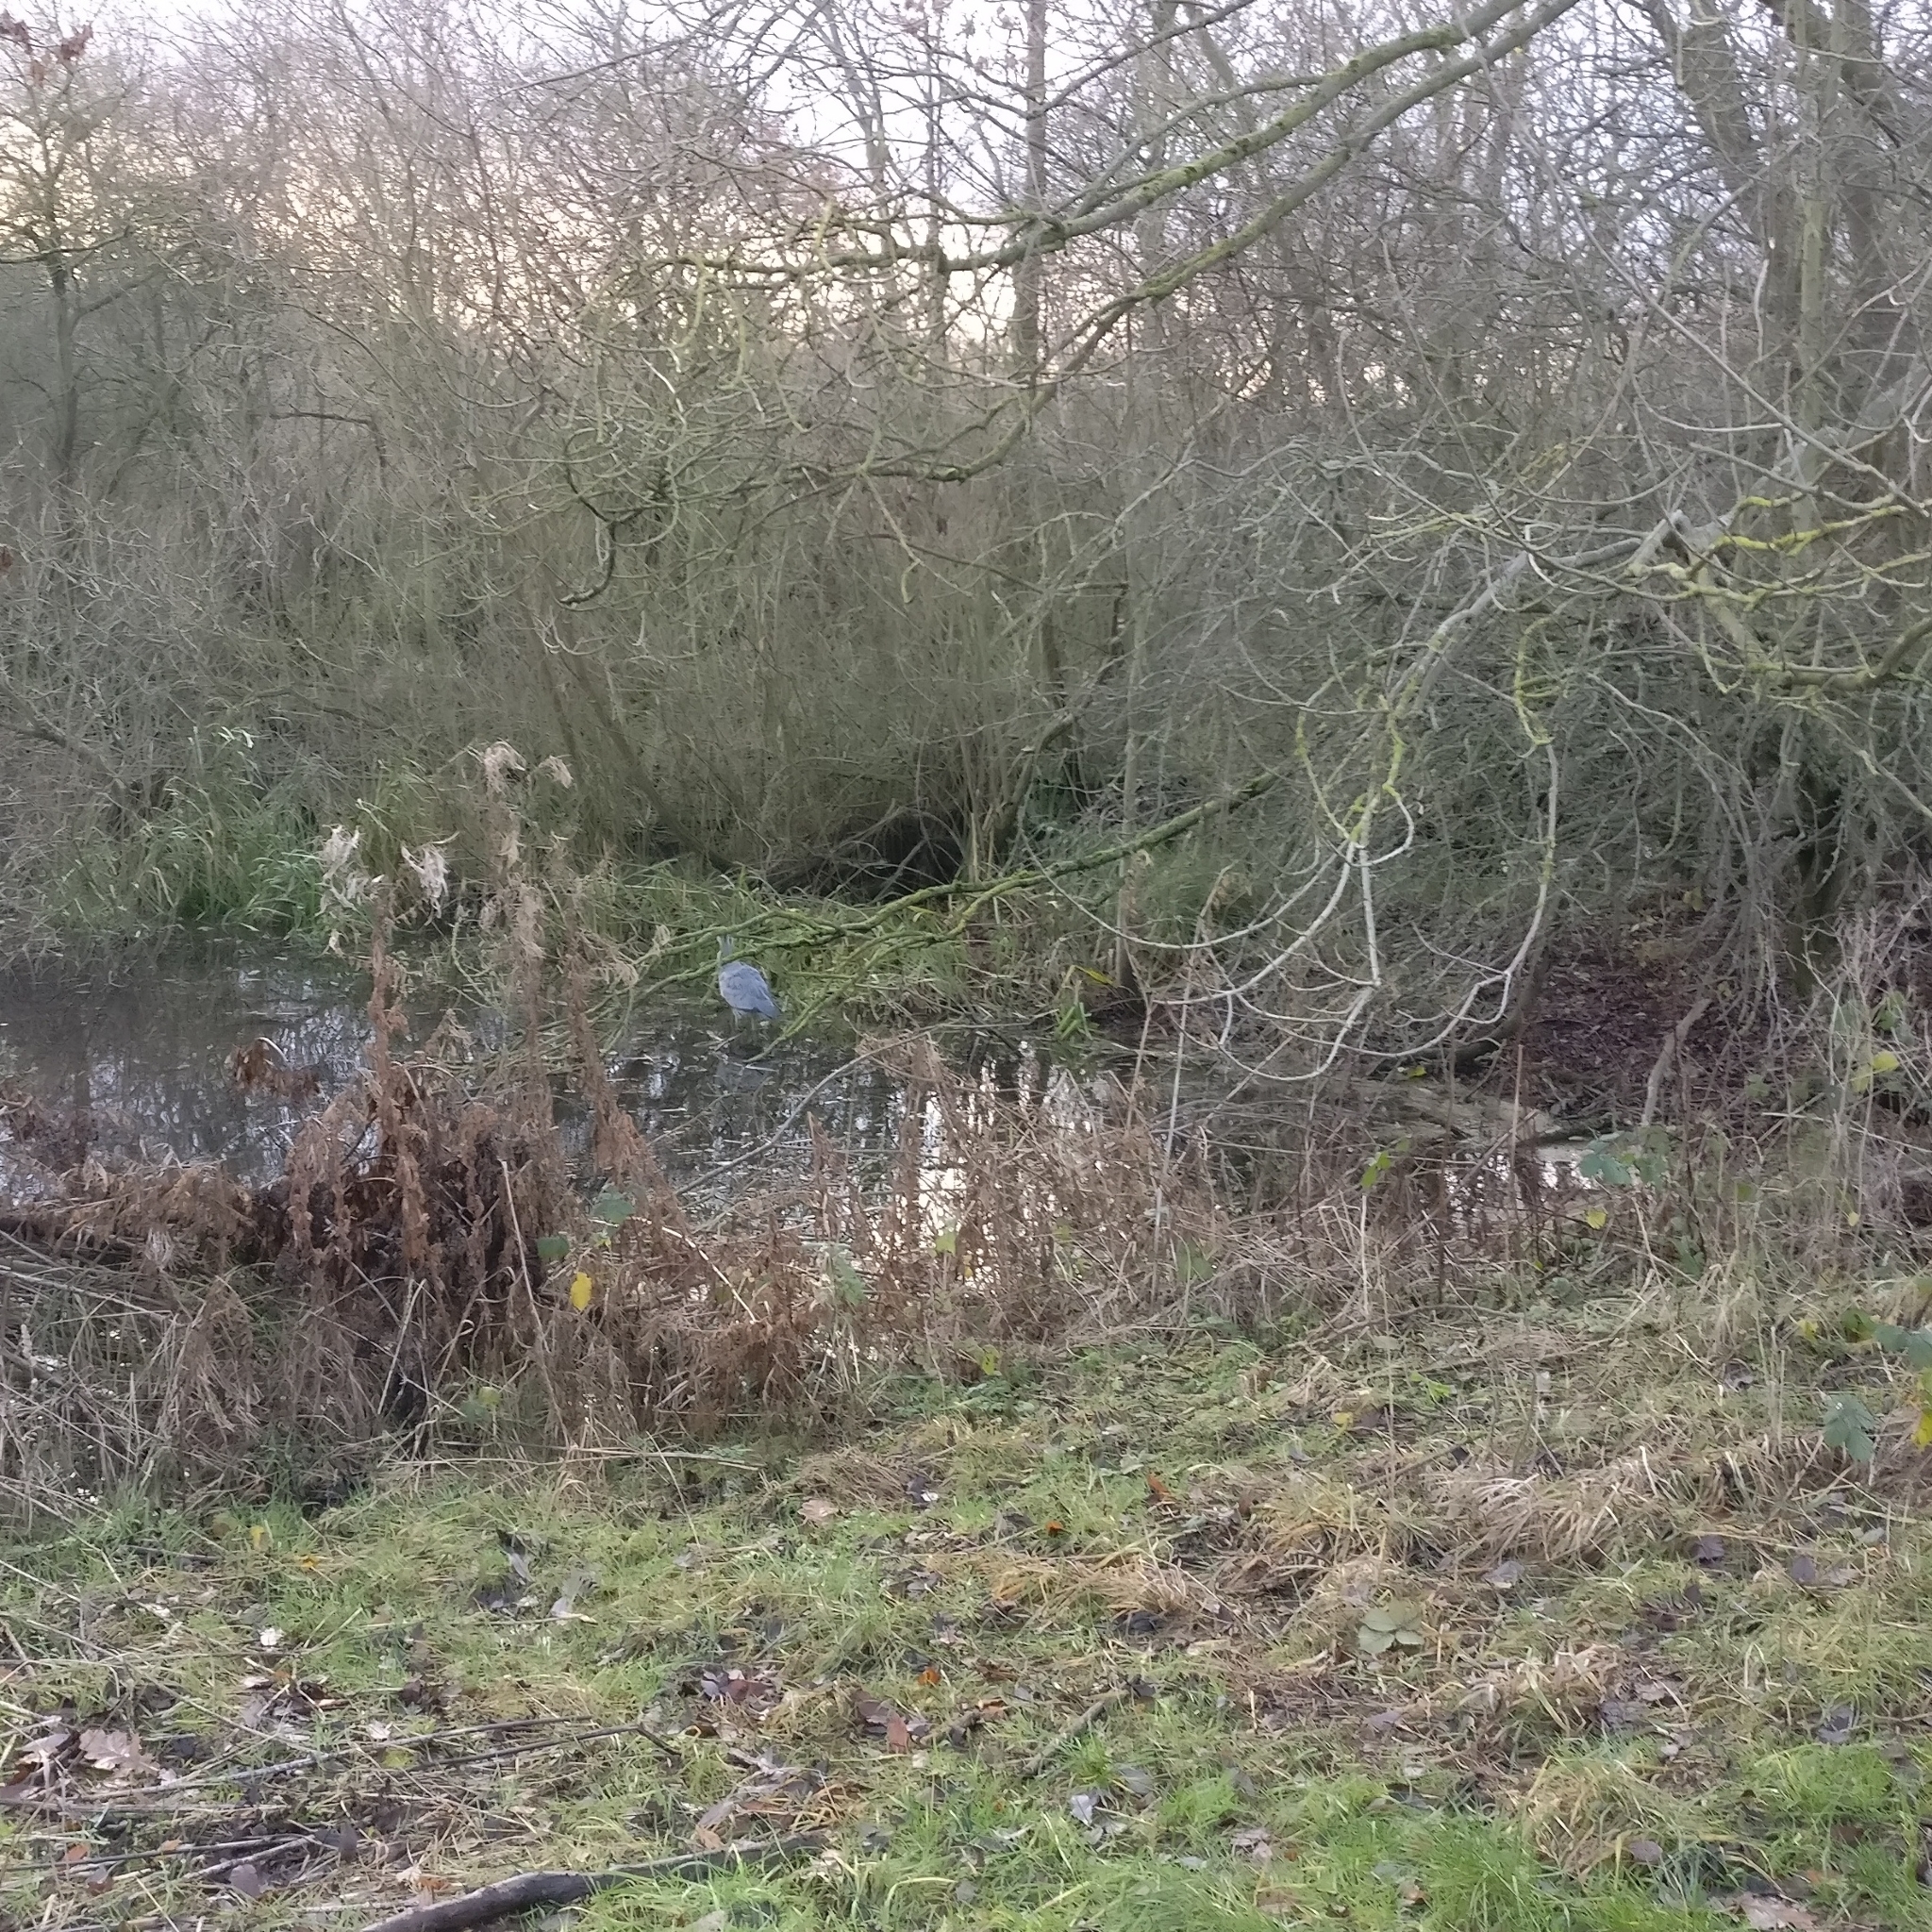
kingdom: Animalia
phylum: Chordata
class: Aves
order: Pelecaniformes
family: Ardeidae
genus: Ardea
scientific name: Ardea cinerea
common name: Grey heron
